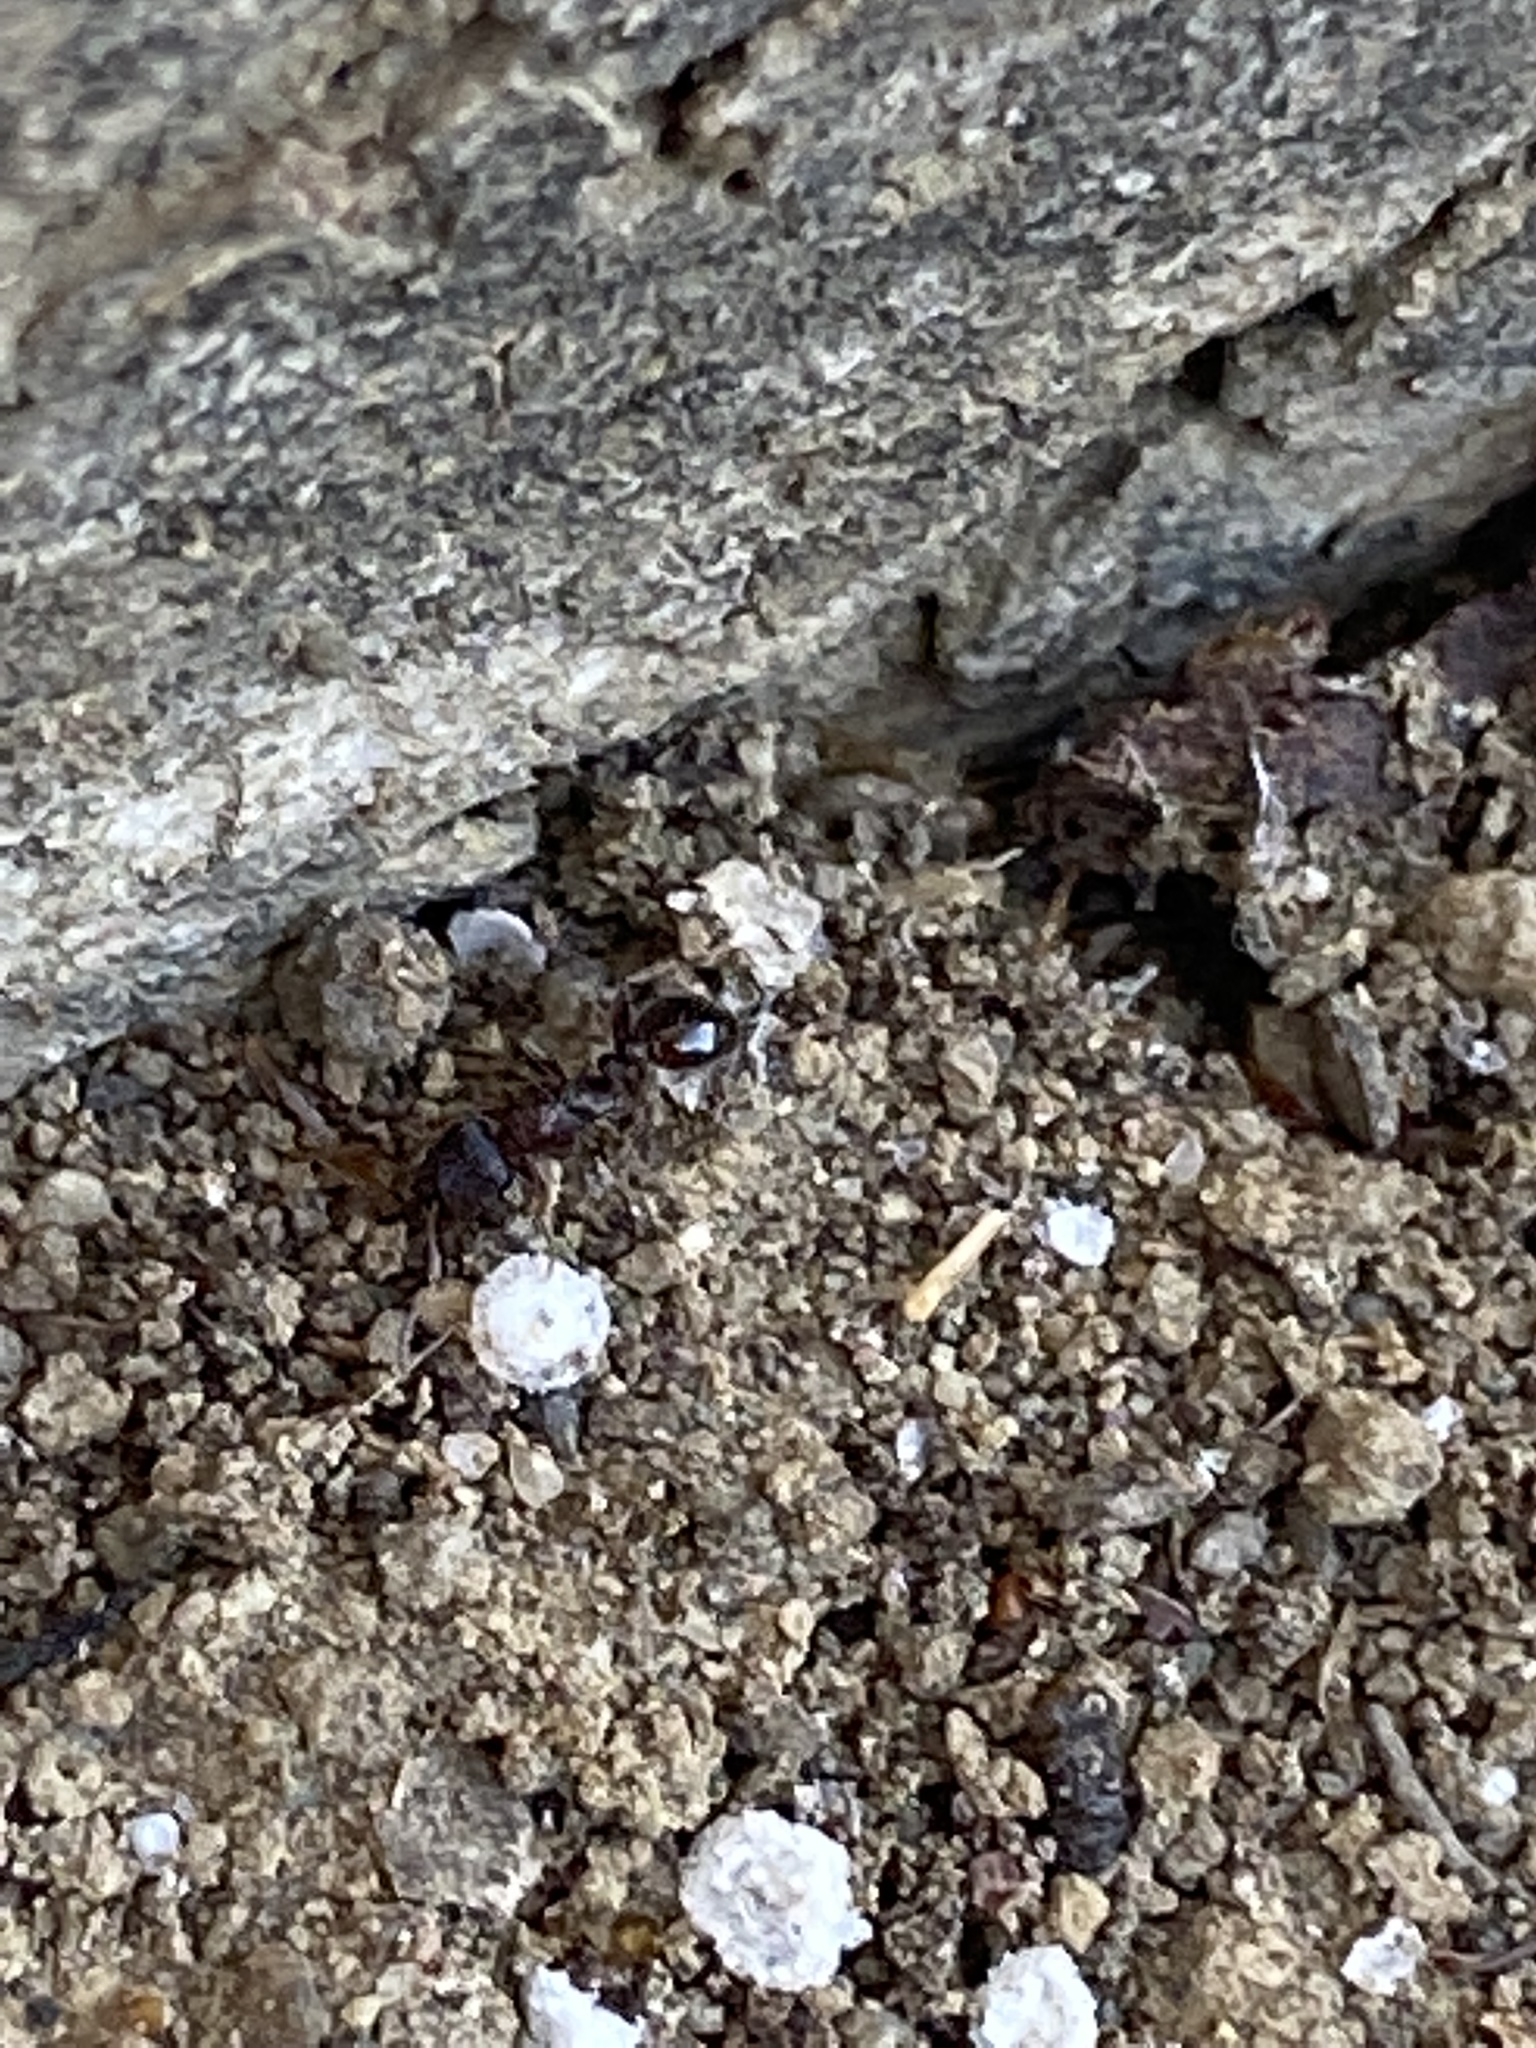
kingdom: Animalia
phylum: Arthropoda
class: Insecta
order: Hymenoptera
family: Formicidae
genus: Tetramorium
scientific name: Tetramorium immigrans
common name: Pavement ant
